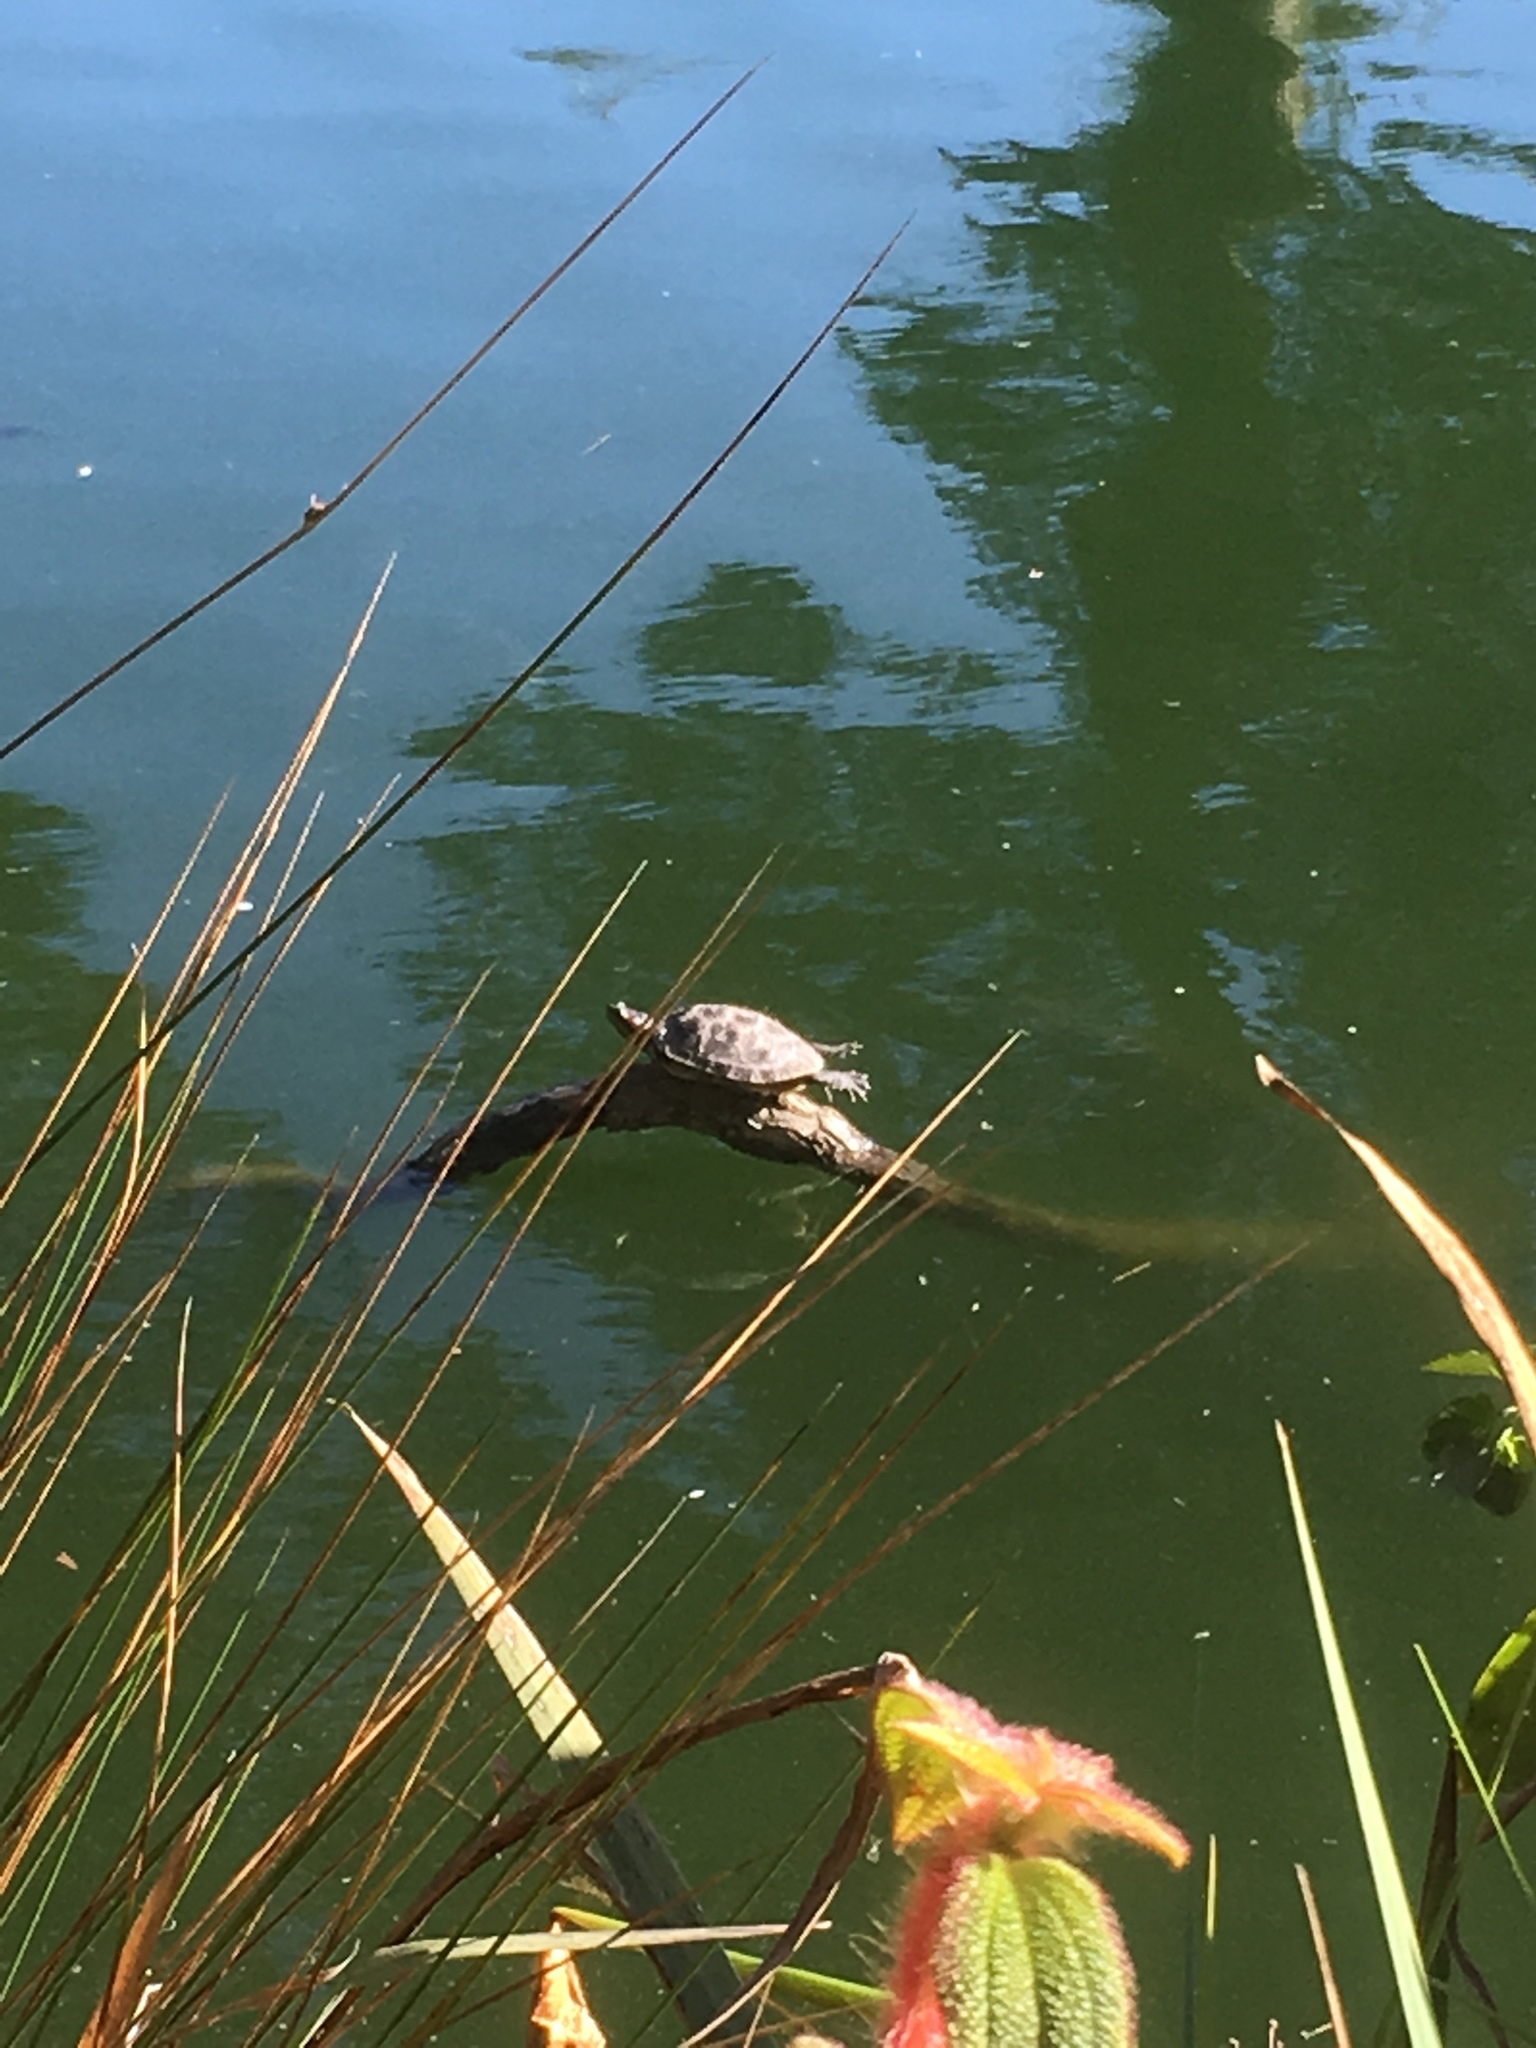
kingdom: Animalia
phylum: Chordata
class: Testudines
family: Emydidae
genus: Trachemys
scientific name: Trachemys scripta
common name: Slider
